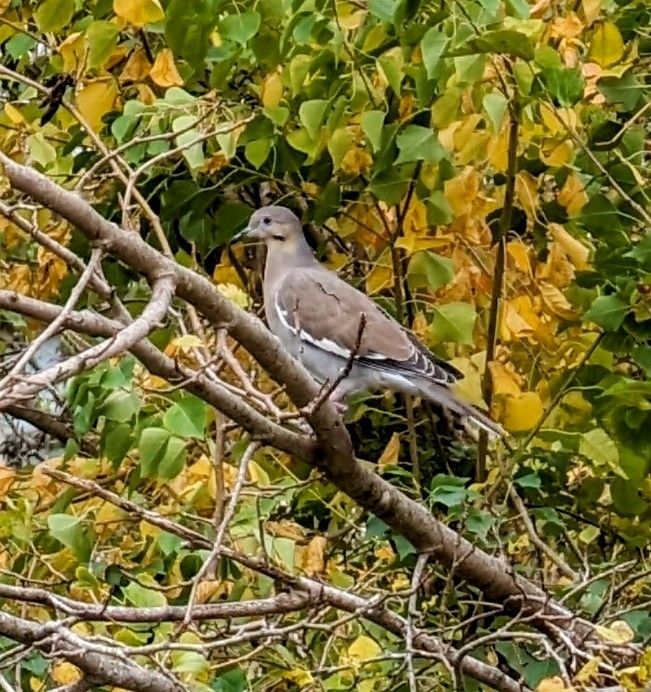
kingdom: Animalia
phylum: Chordata
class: Aves
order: Columbiformes
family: Columbidae
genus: Zenaida
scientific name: Zenaida asiatica
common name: White-winged dove
